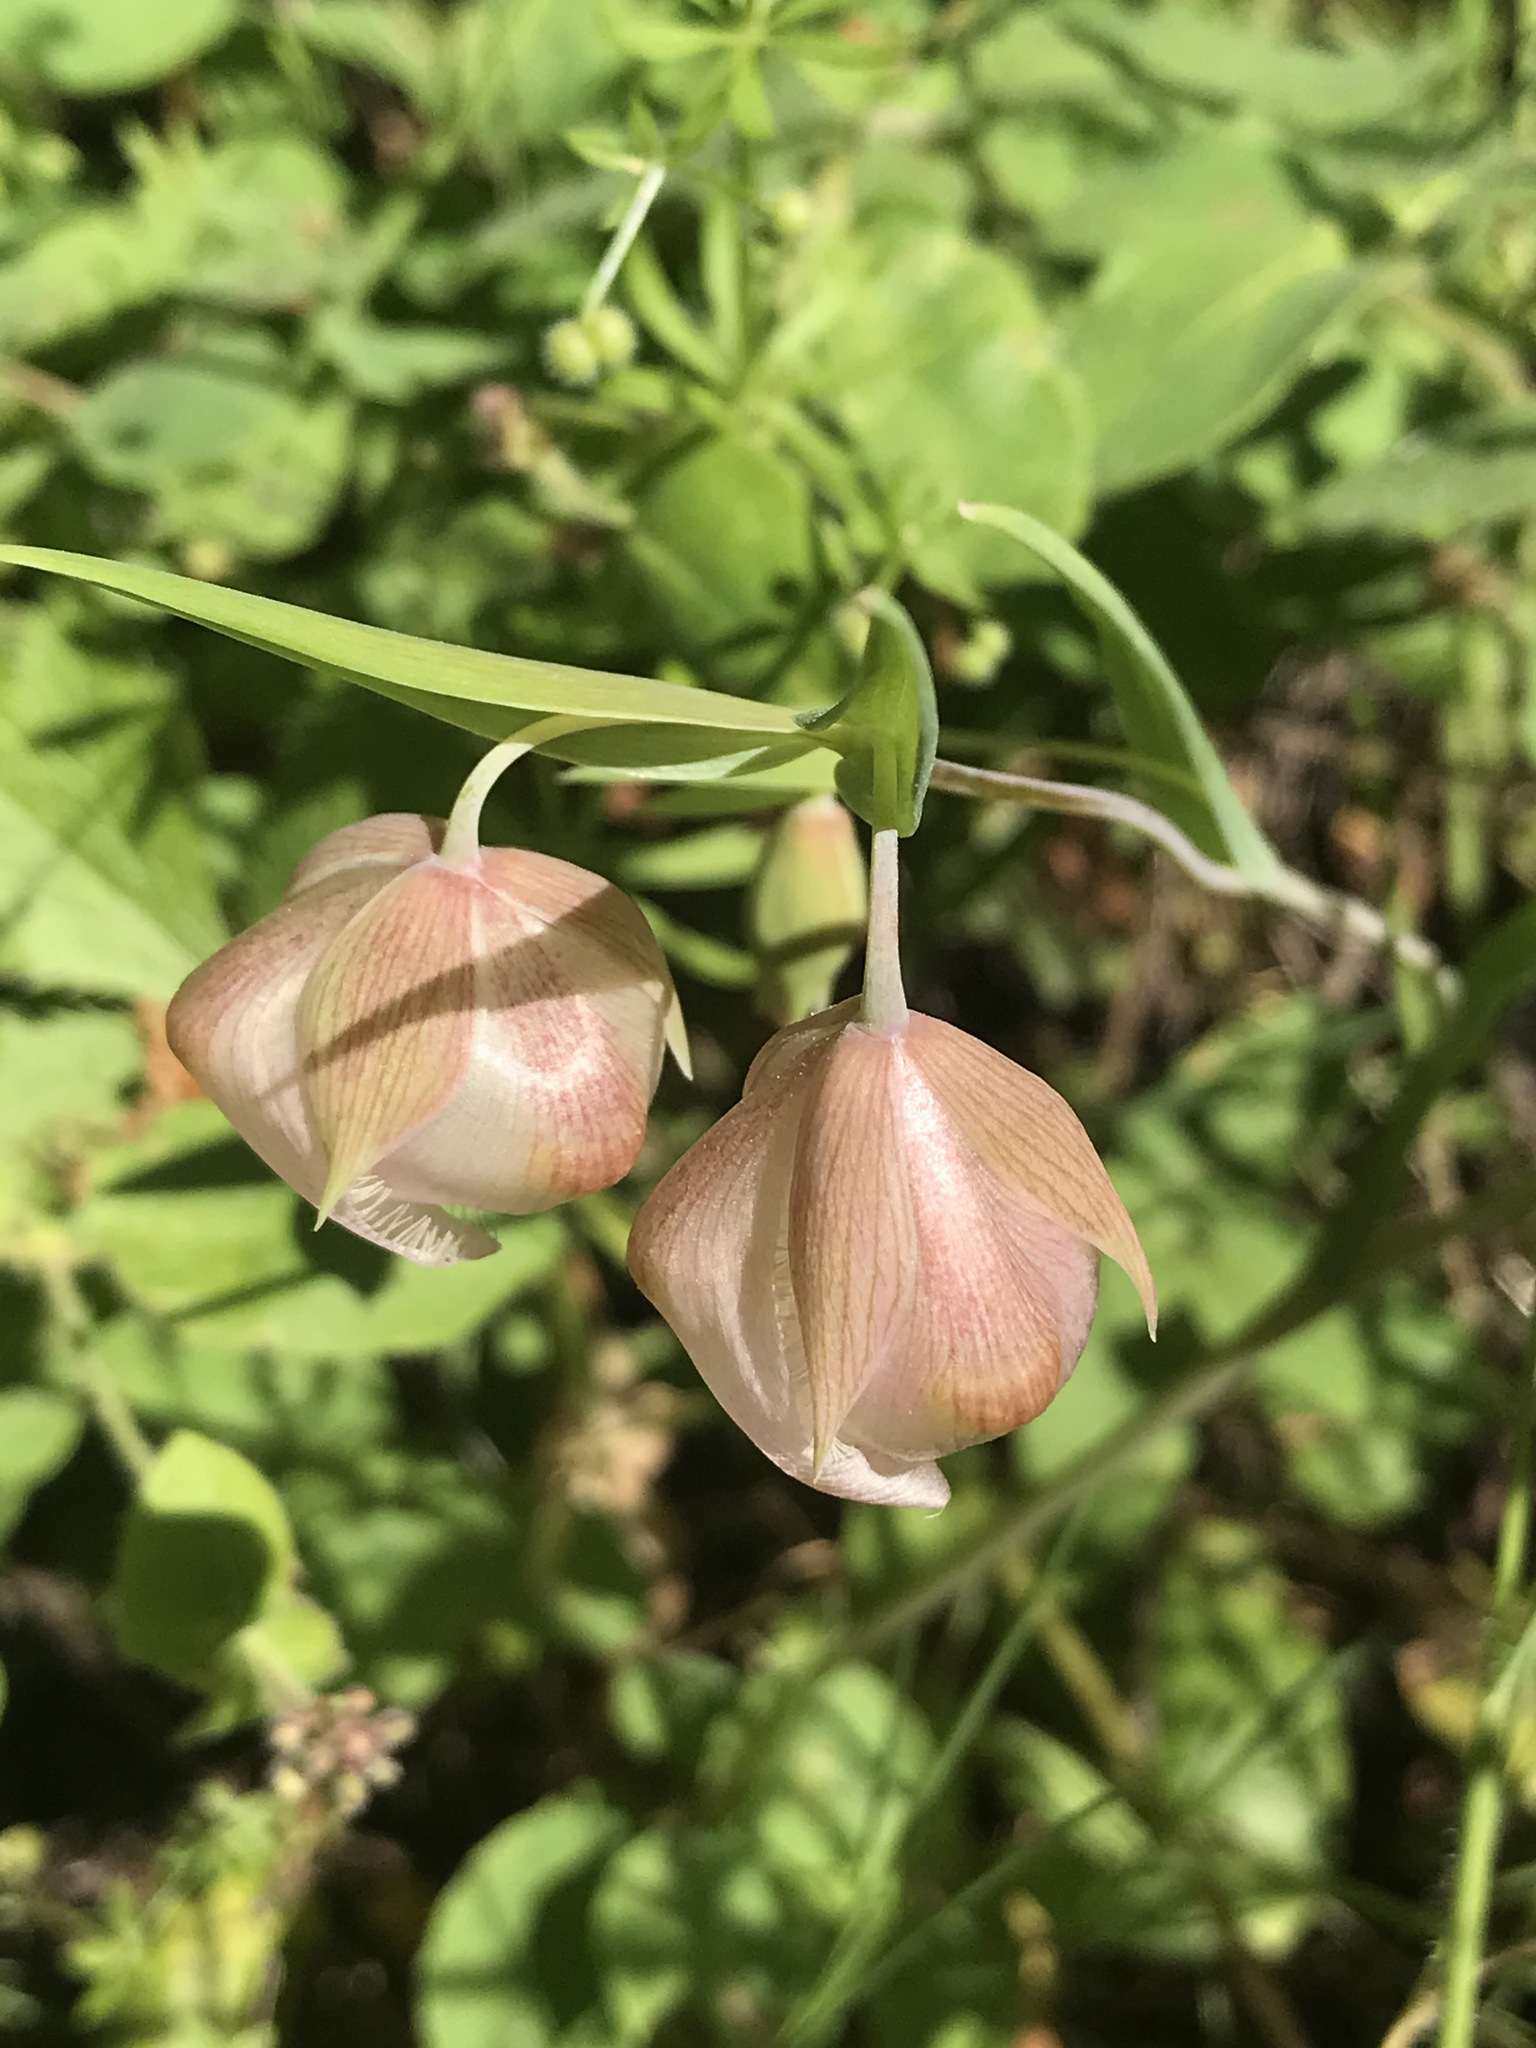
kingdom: Plantae
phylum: Tracheophyta
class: Liliopsida
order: Liliales
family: Liliaceae
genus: Calochortus
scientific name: Calochortus albus
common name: Fairy-lantern
